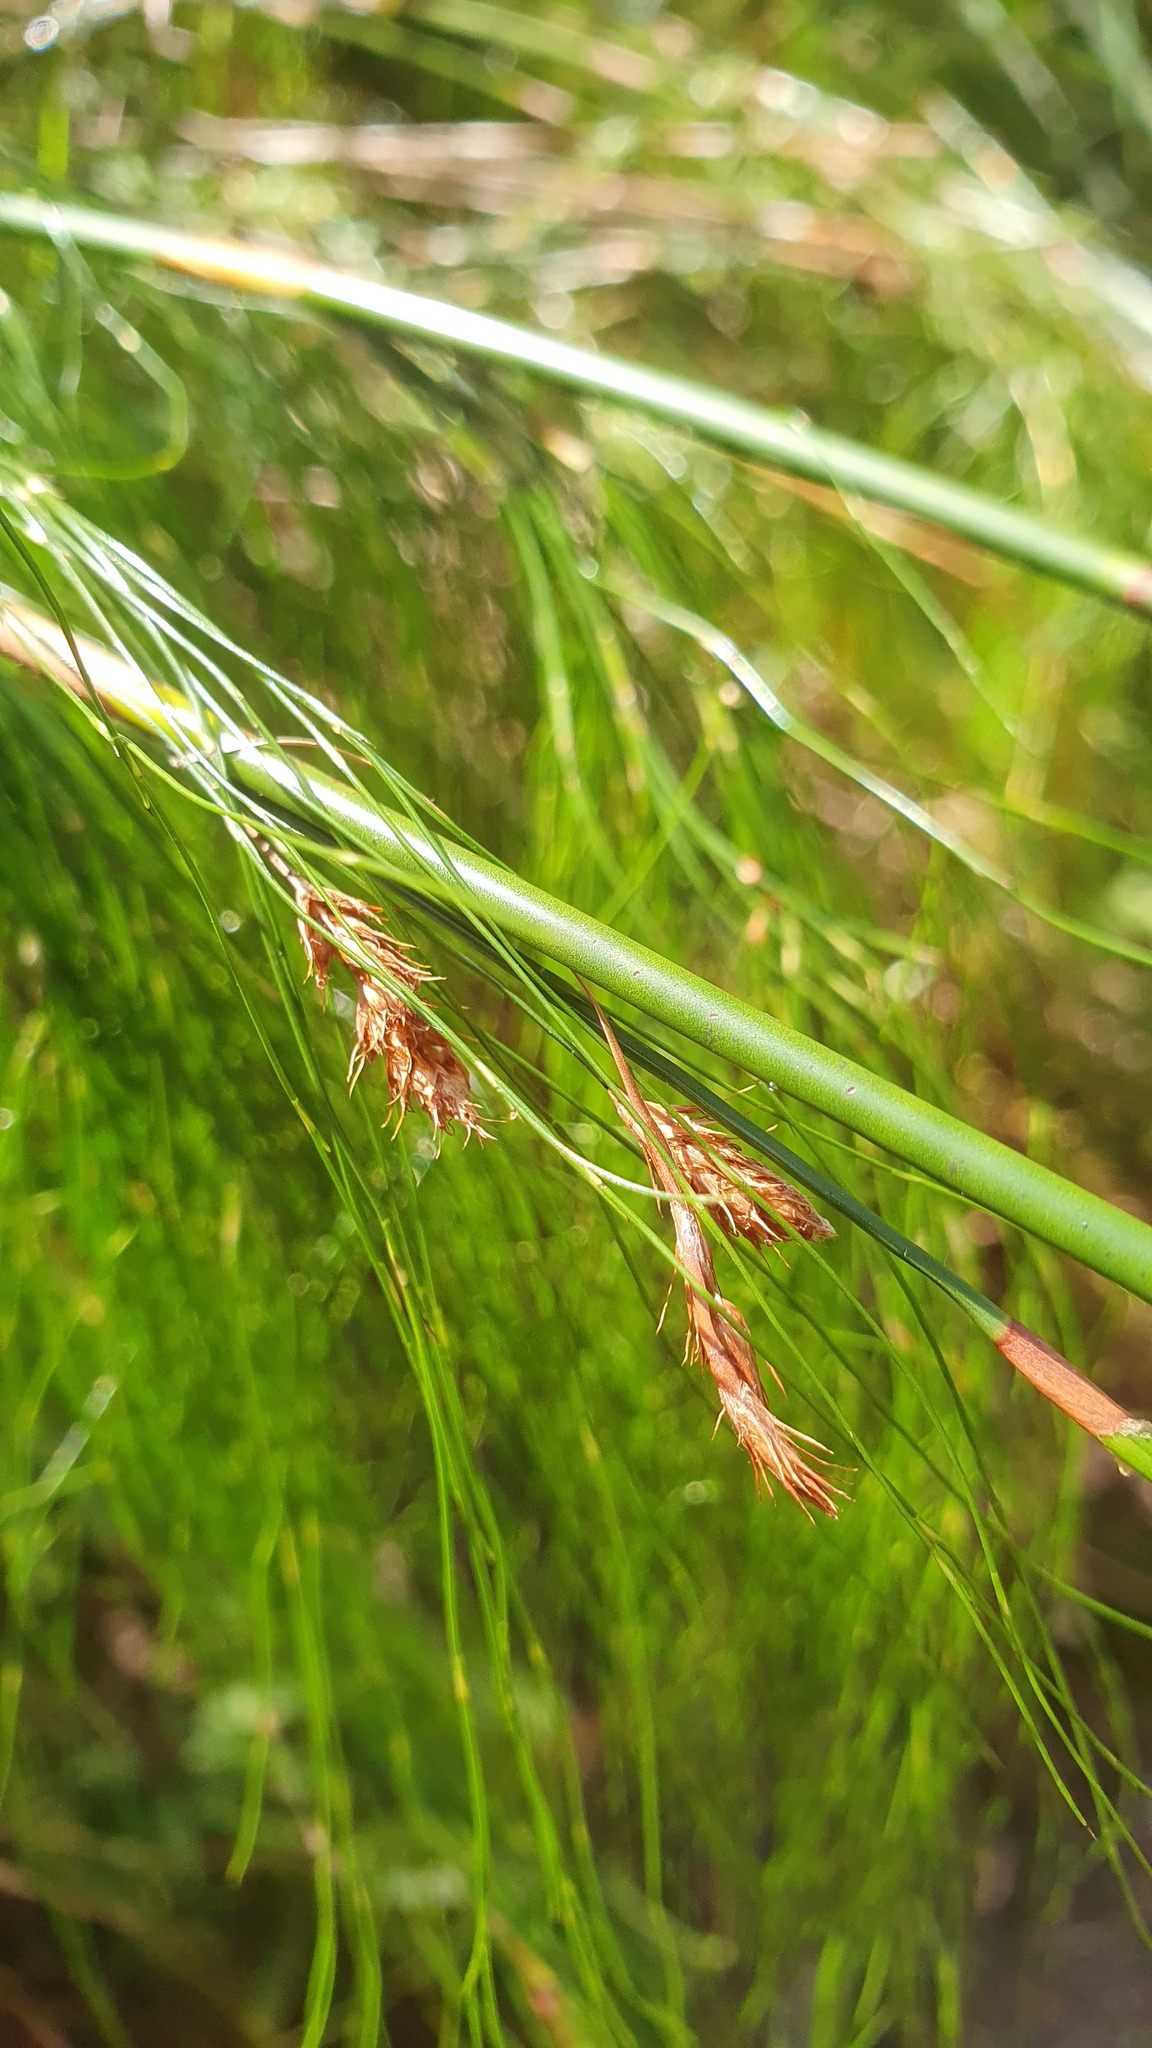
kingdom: Plantae
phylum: Tracheophyta
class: Liliopsida
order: Poales
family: Restionaceae
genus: Baloskion
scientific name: Baloskion tetraphyllum
